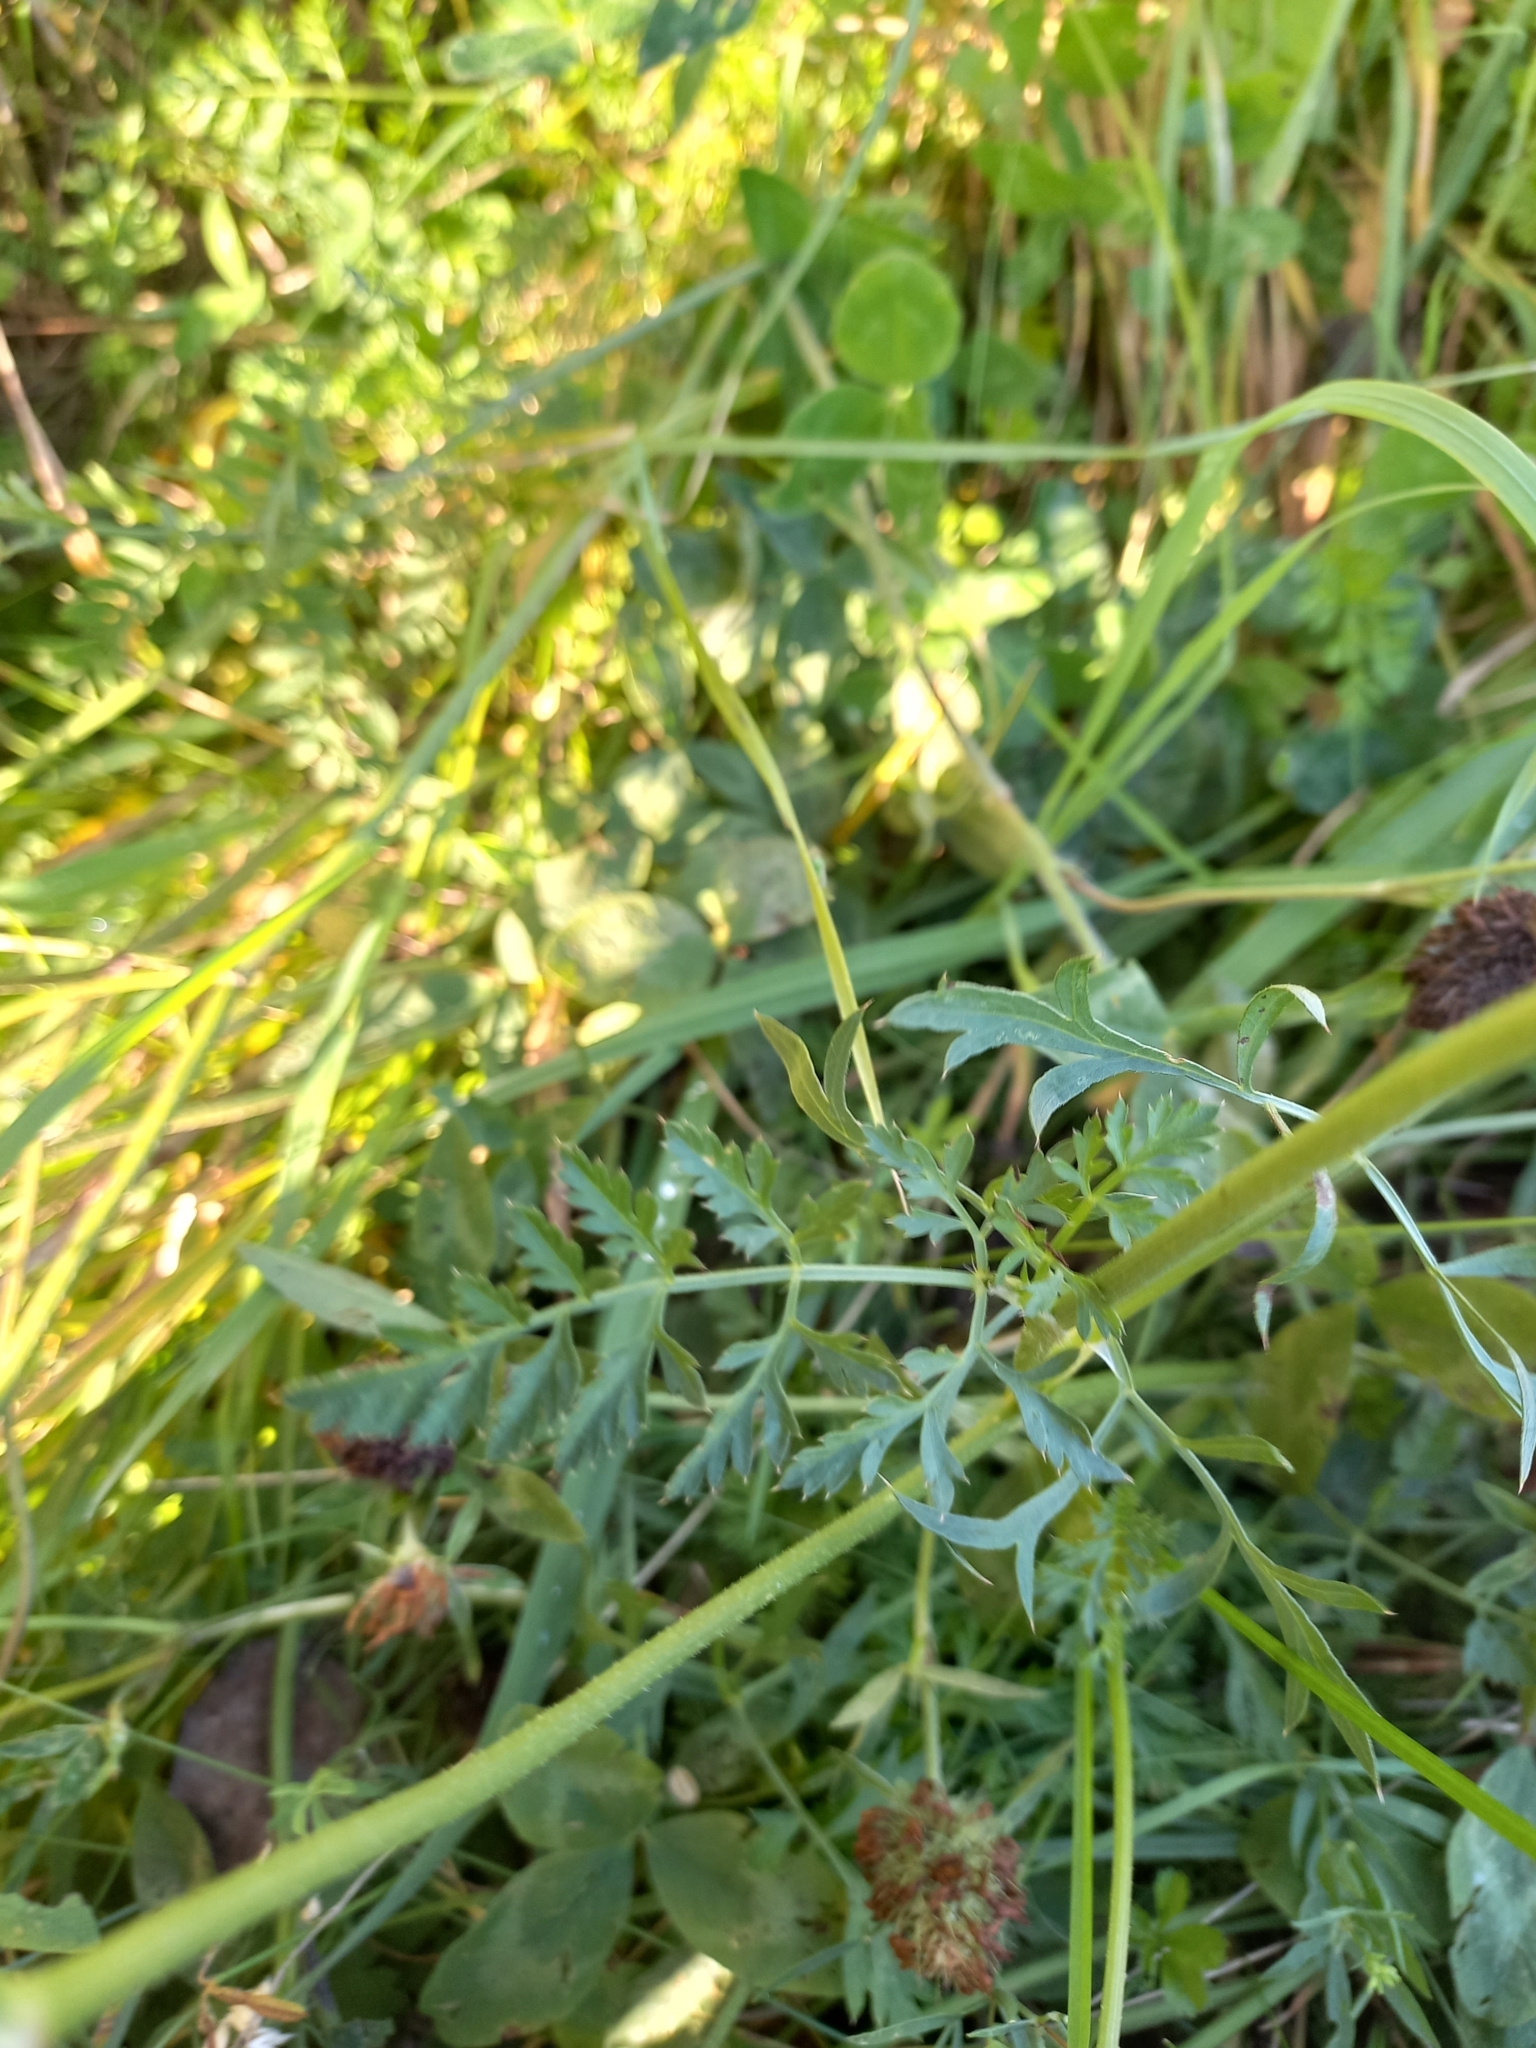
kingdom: Plantae
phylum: Tracheophyta
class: Magnoliopsida
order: Apiales
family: Apiaceae
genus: Daucus
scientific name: Daucus carota
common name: Wild carrot
